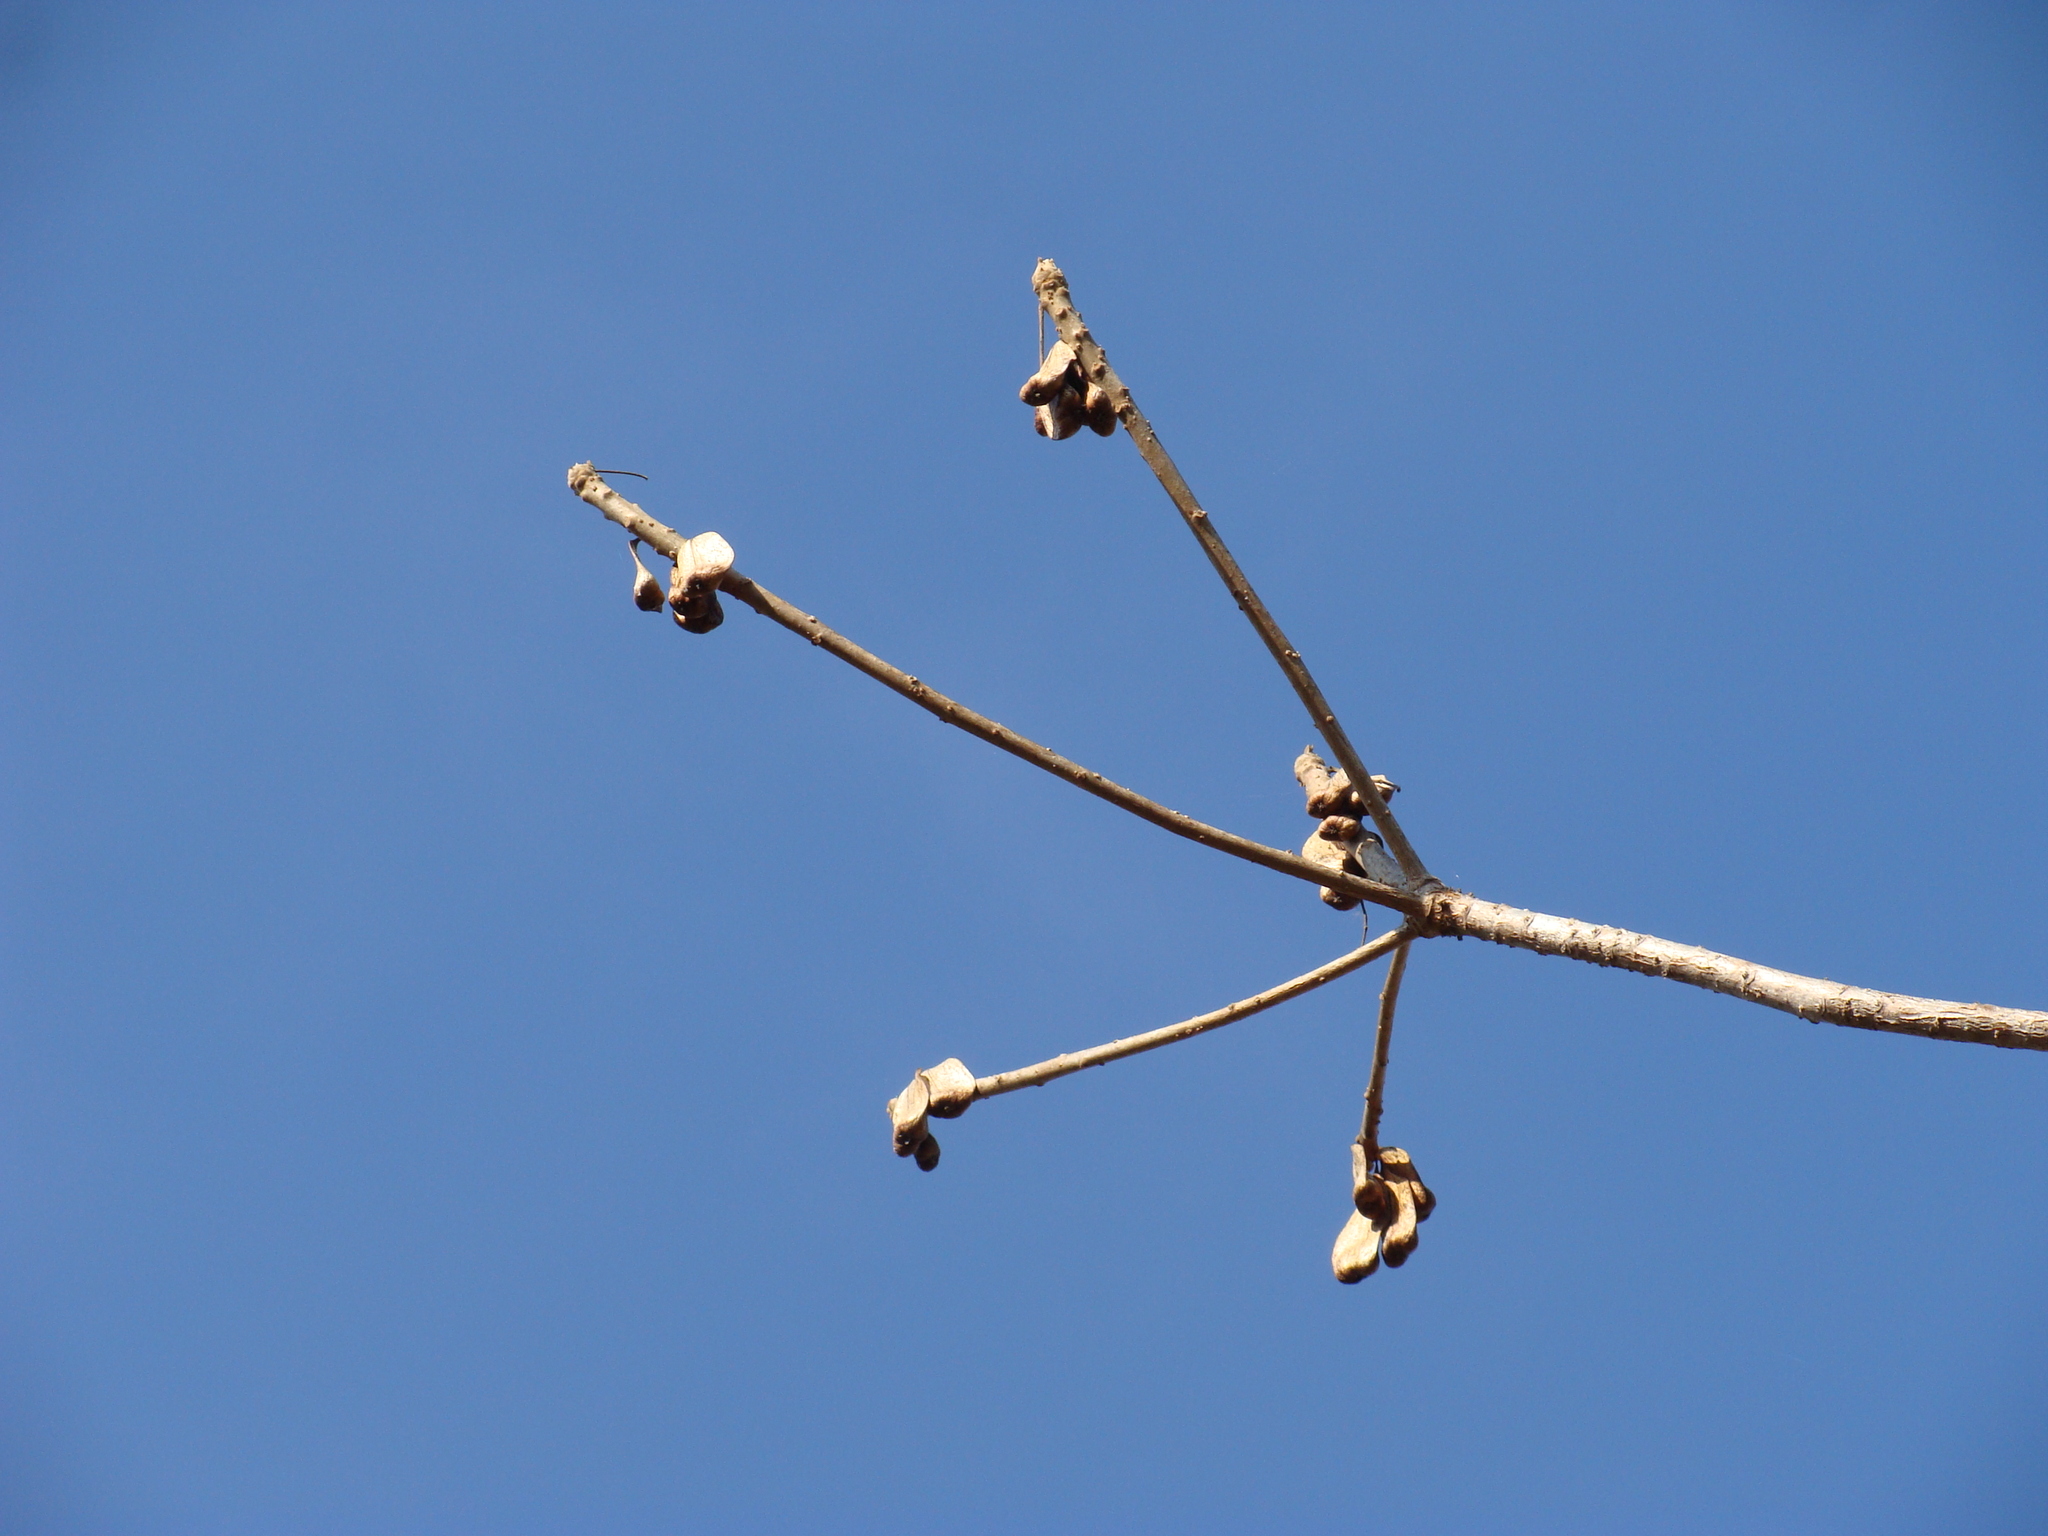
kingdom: Plantae
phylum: Tracheophyta
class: Magnoliopsida
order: Sapindales
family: Anacardiaceae
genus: Amphipterygium
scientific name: Amphipterygium adstringens
